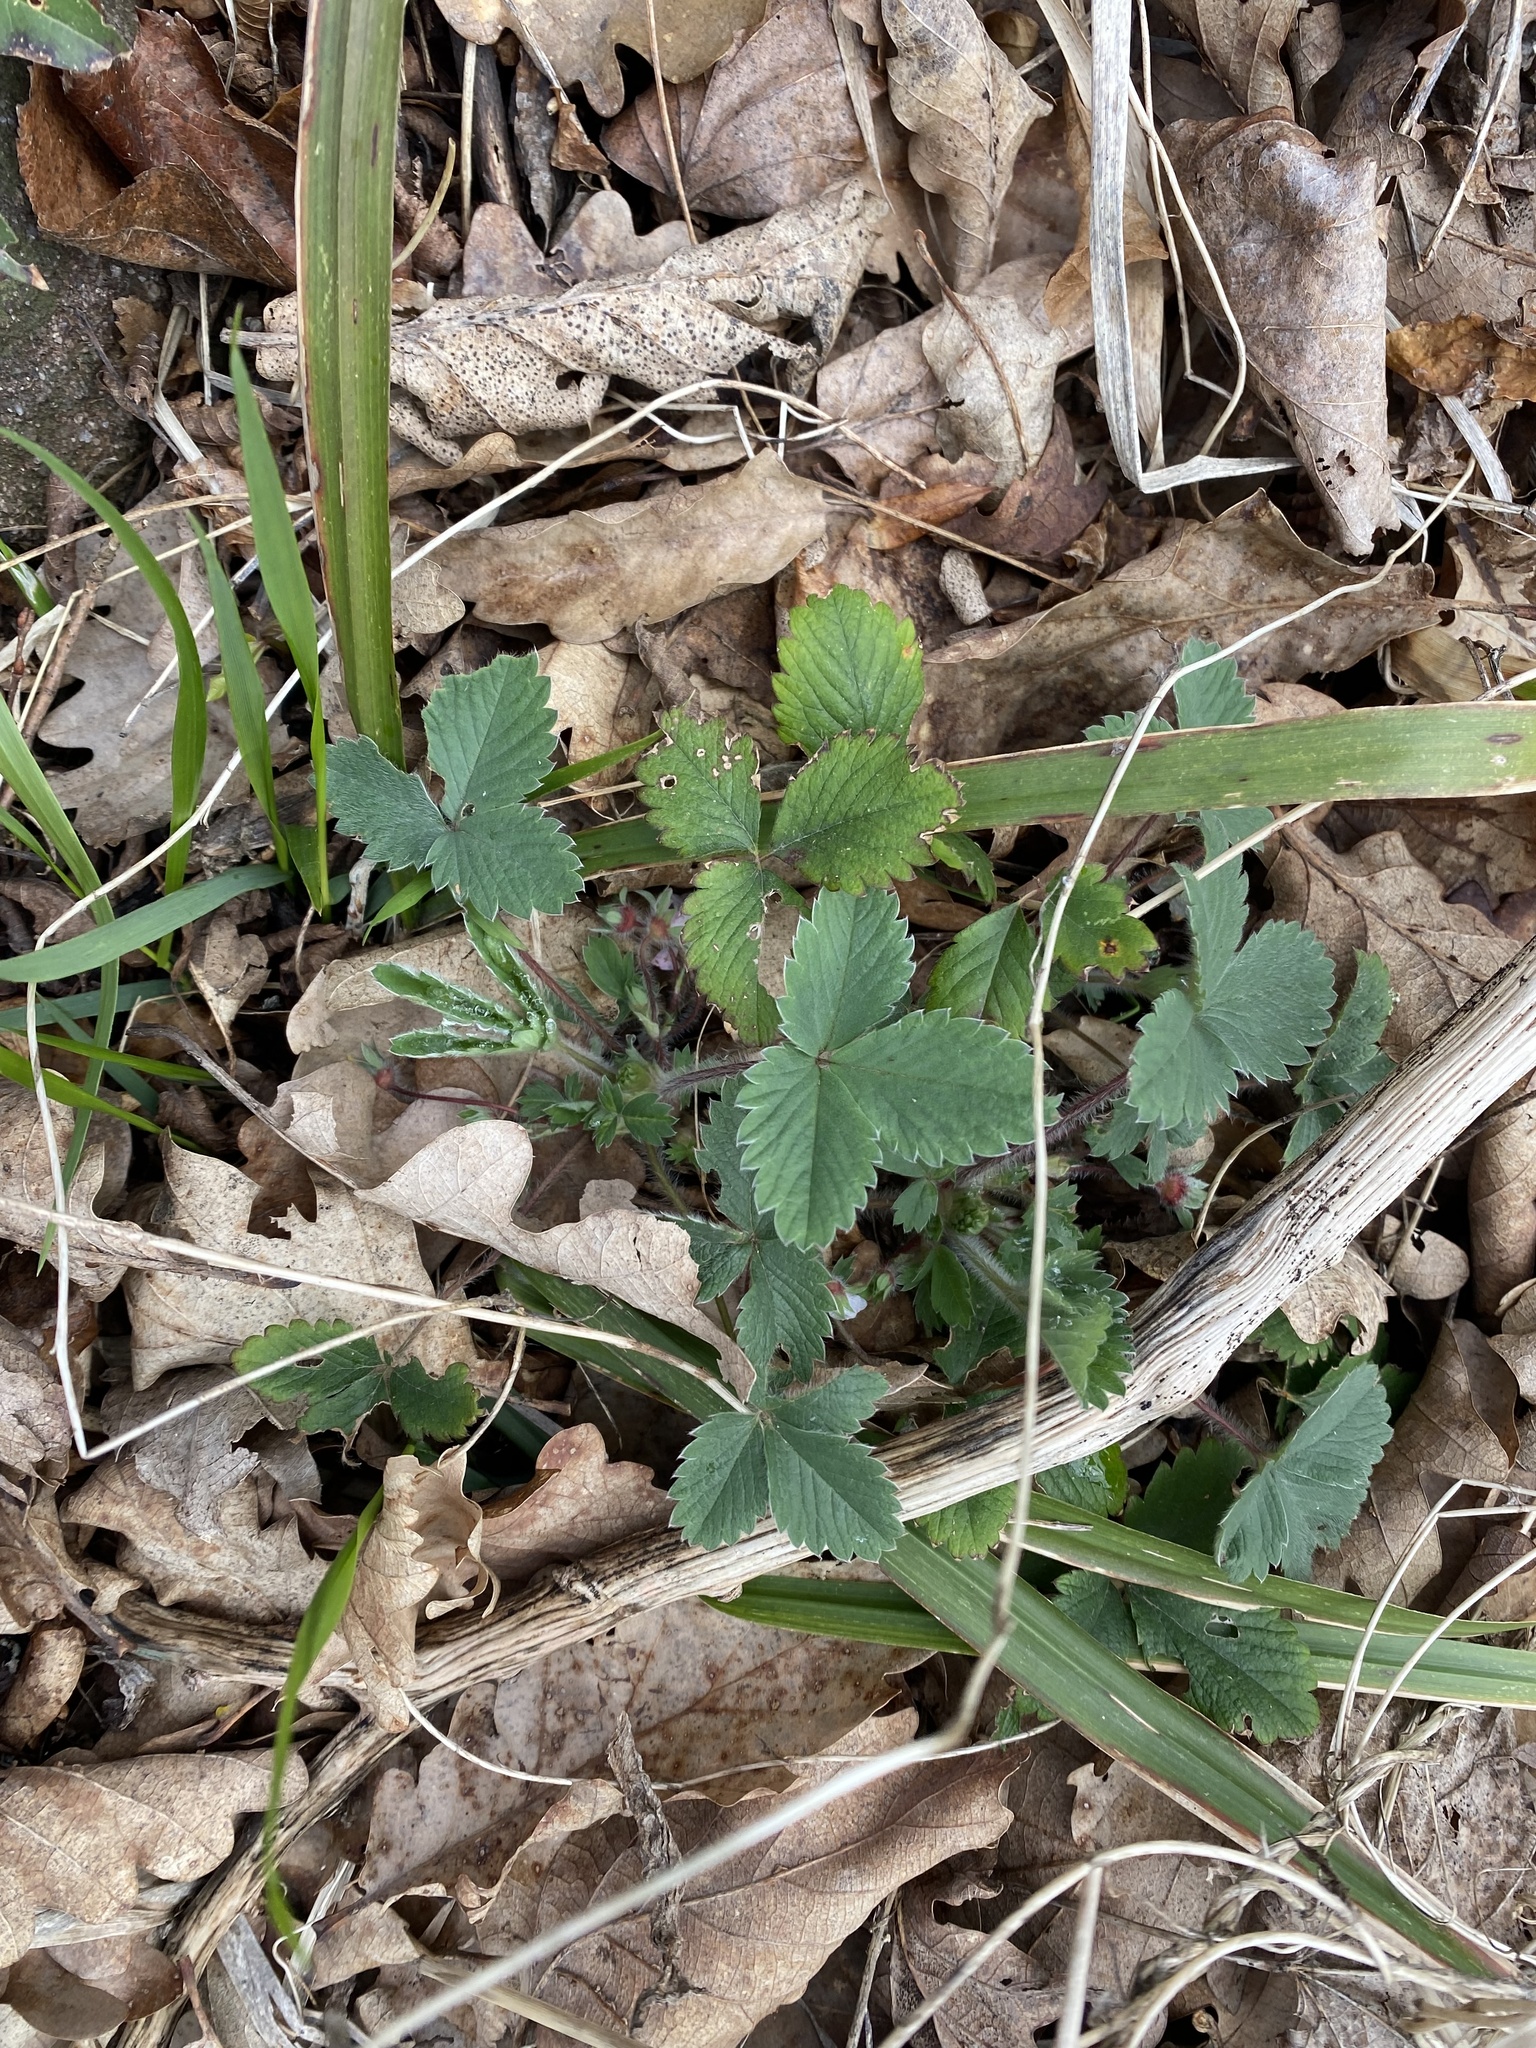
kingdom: Plantae
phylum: Tracheophyta
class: Magnoliopsida
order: Rosales
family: Rosaceae
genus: Potentilla
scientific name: Potentilla micrantha
